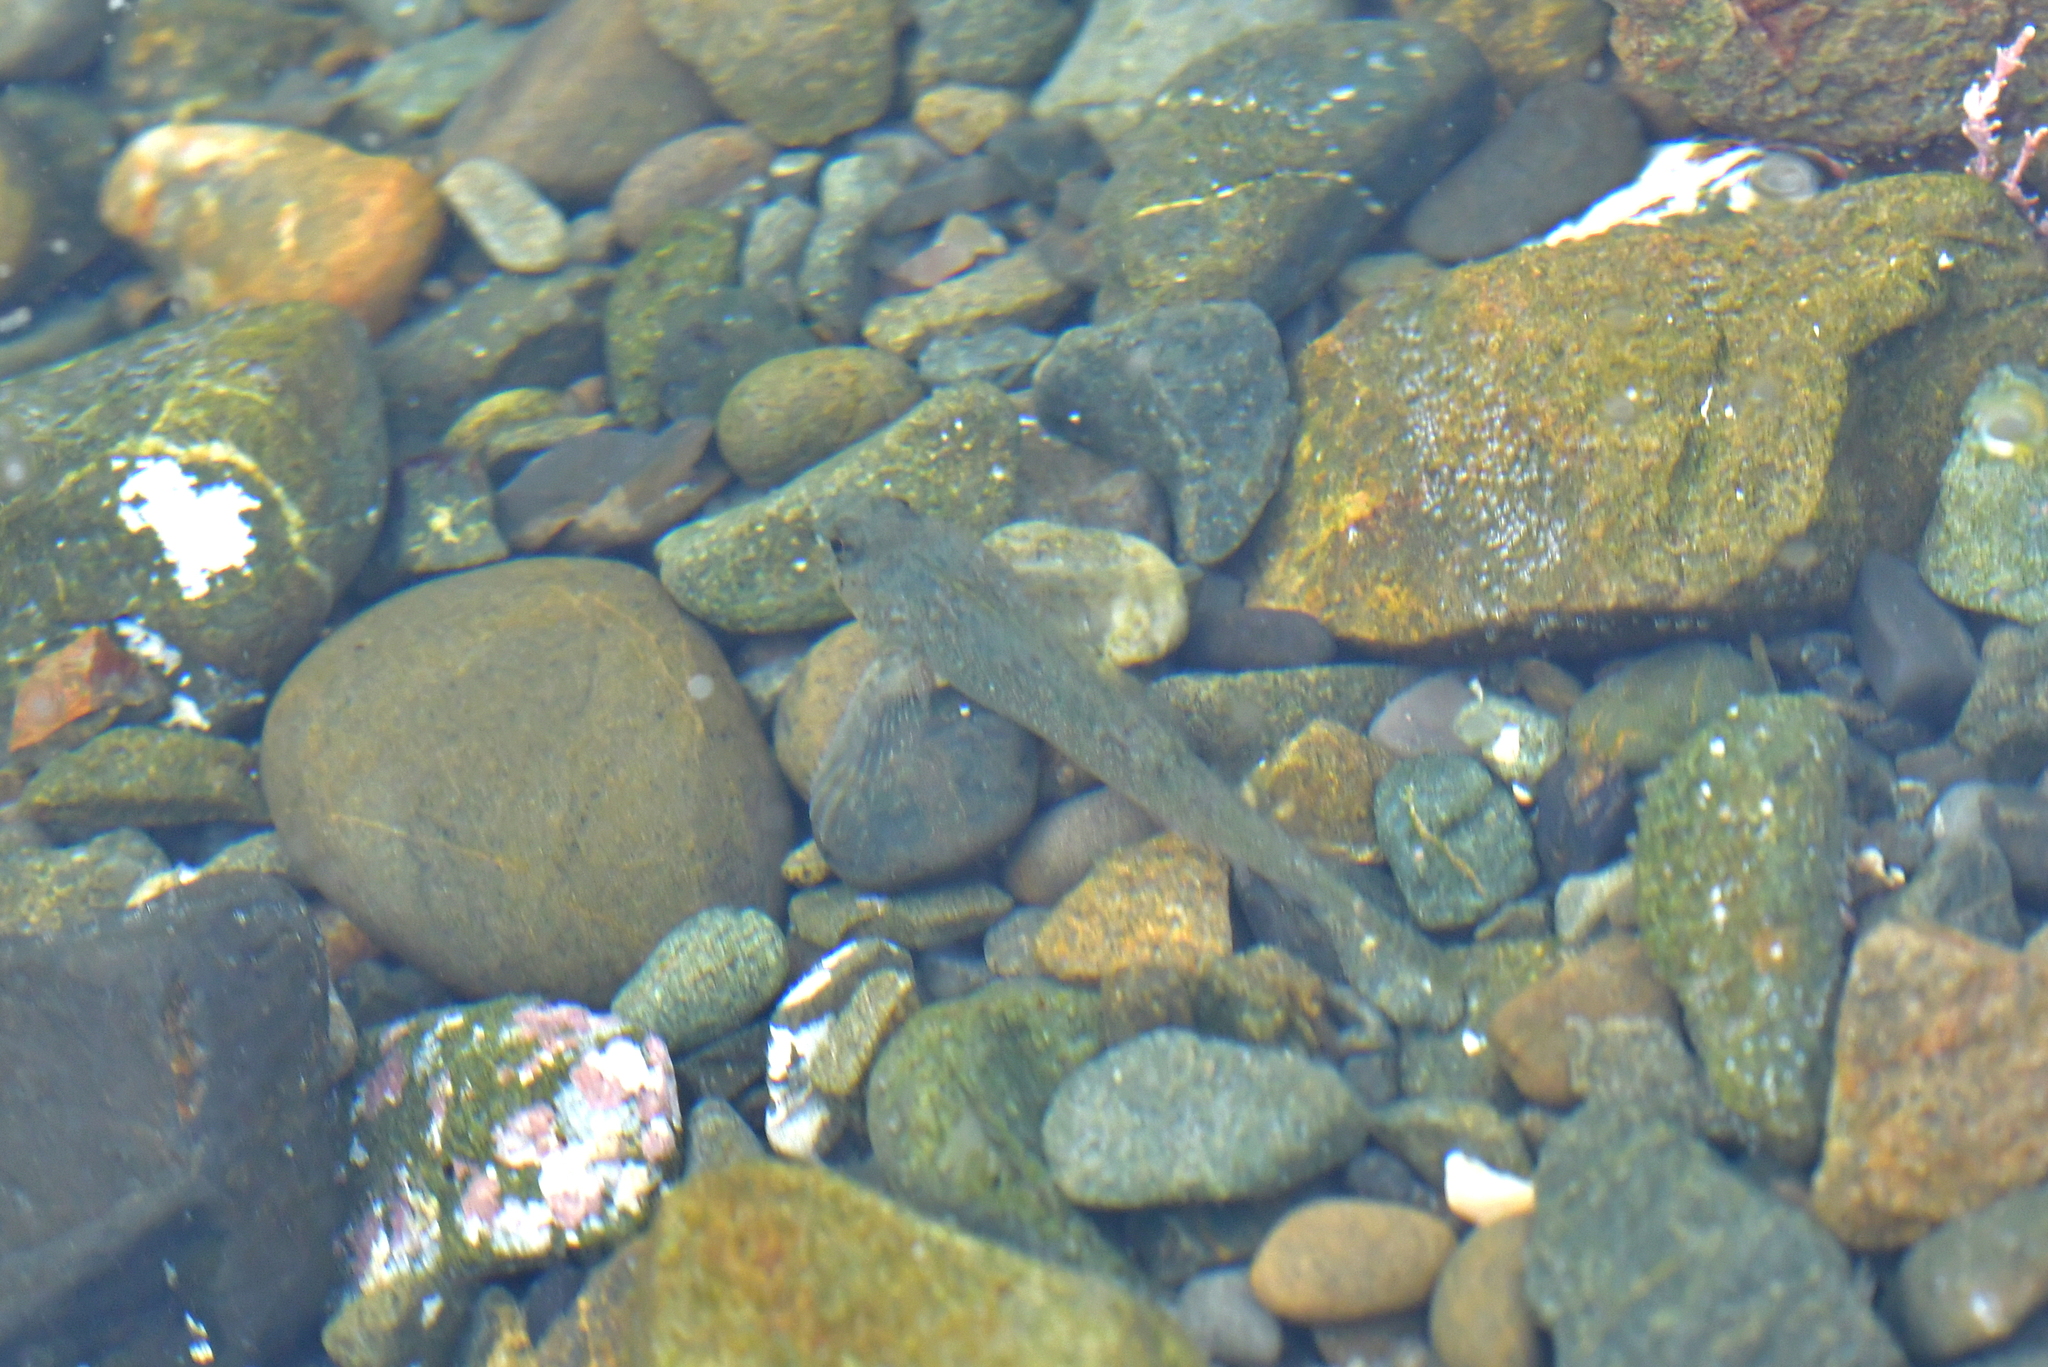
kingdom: Animalia
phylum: Chordata
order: Perciformes
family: Tripterygiidae
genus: Bellapiscis
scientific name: Bellapiscis medius
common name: Twister
